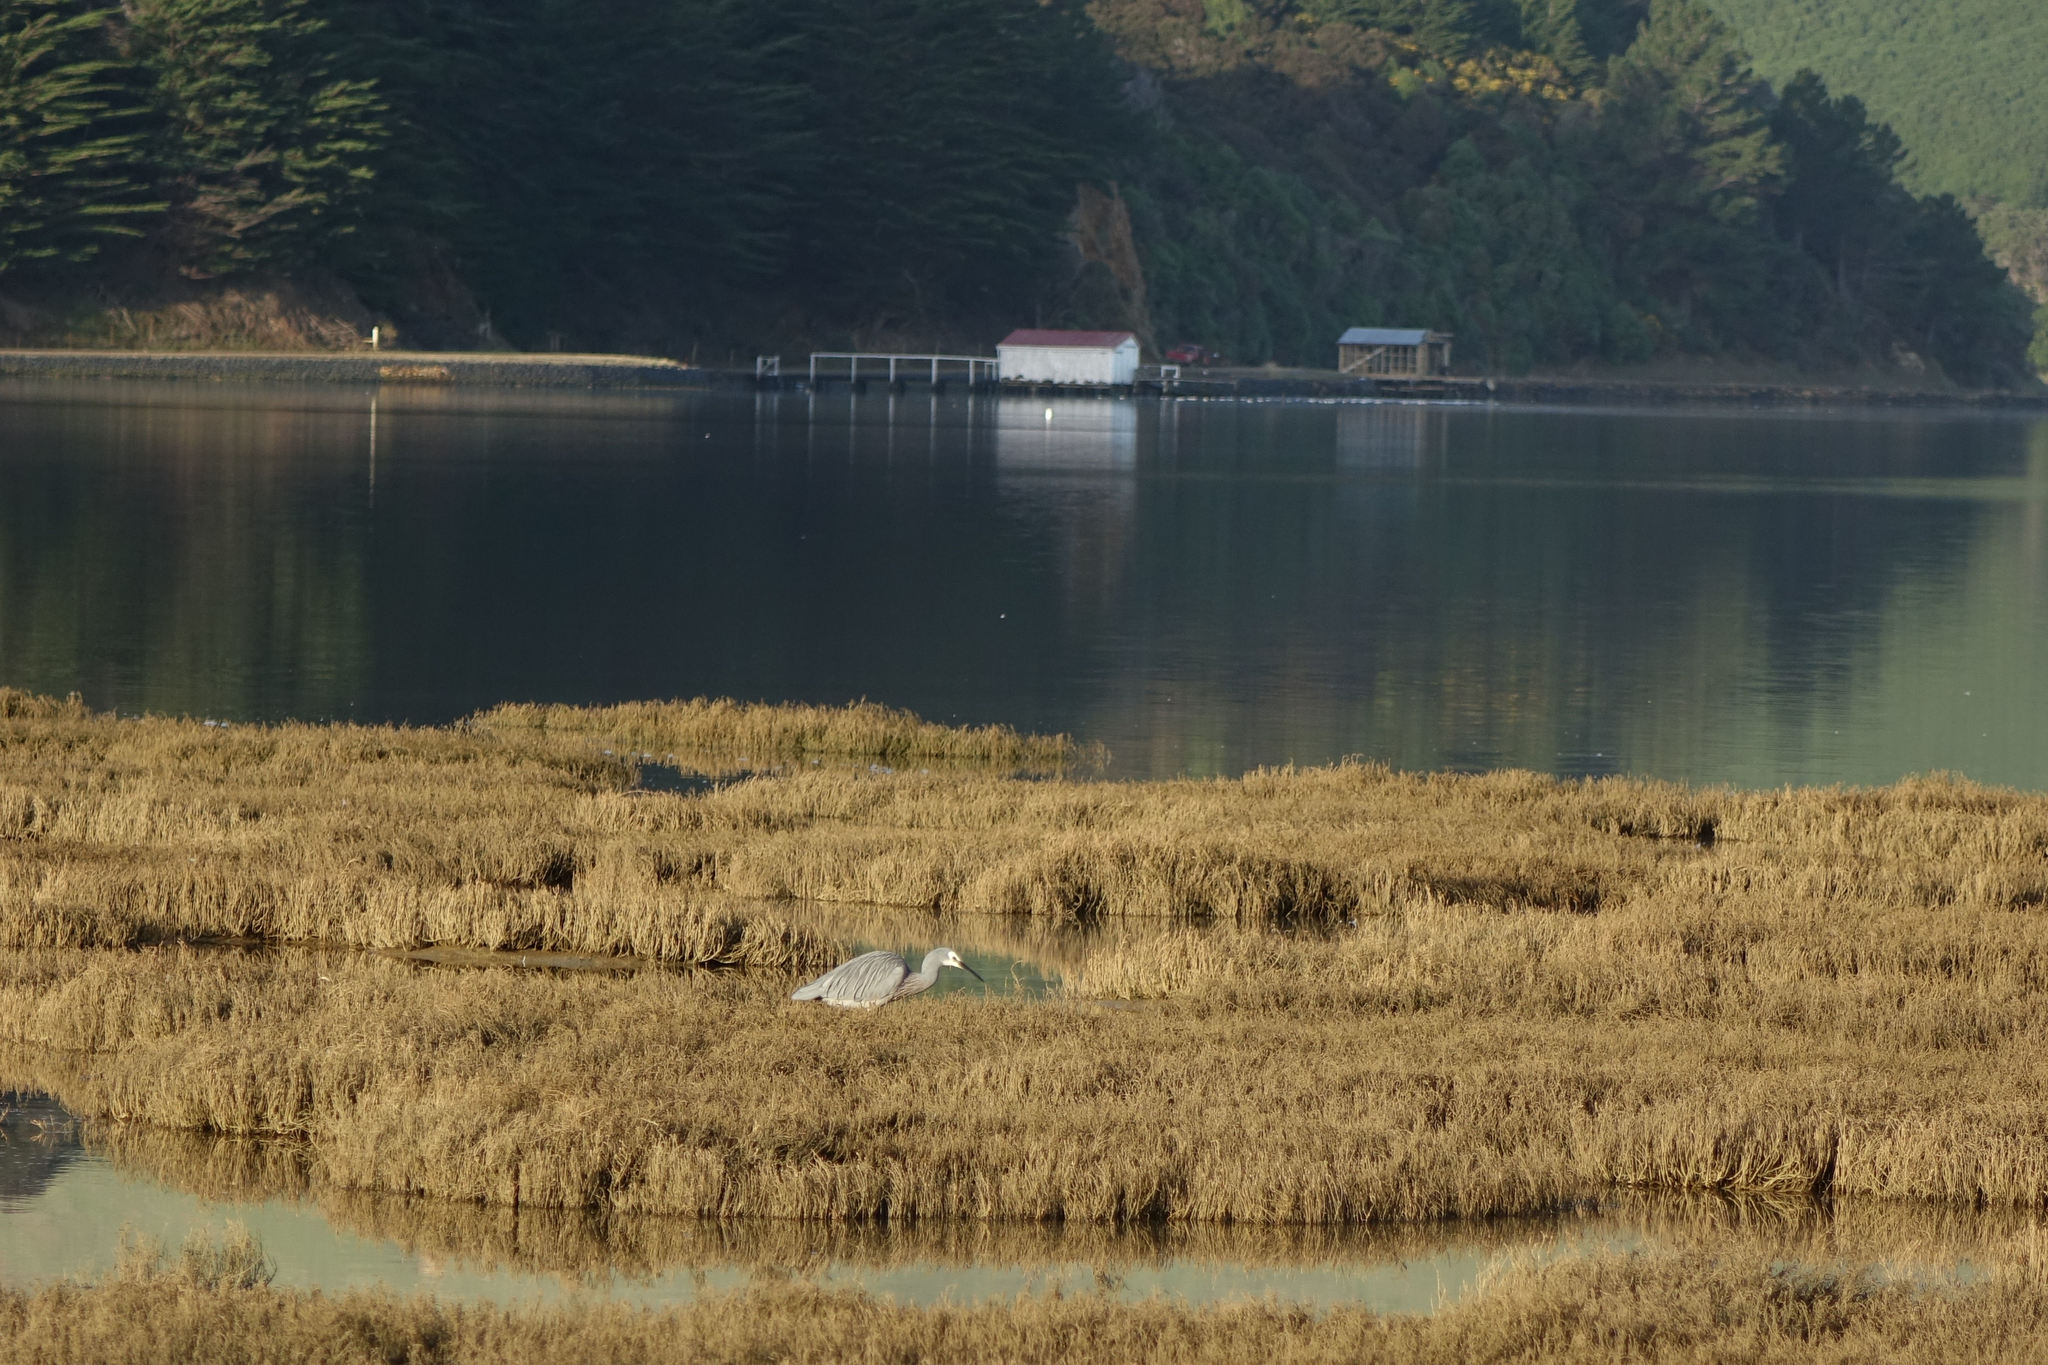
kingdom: Animalia
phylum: Chordata
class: Aves
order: Pelecaniformes
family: Ardeidae
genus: Egretta
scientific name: Egretta novaehollandiae
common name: White-faced heron
